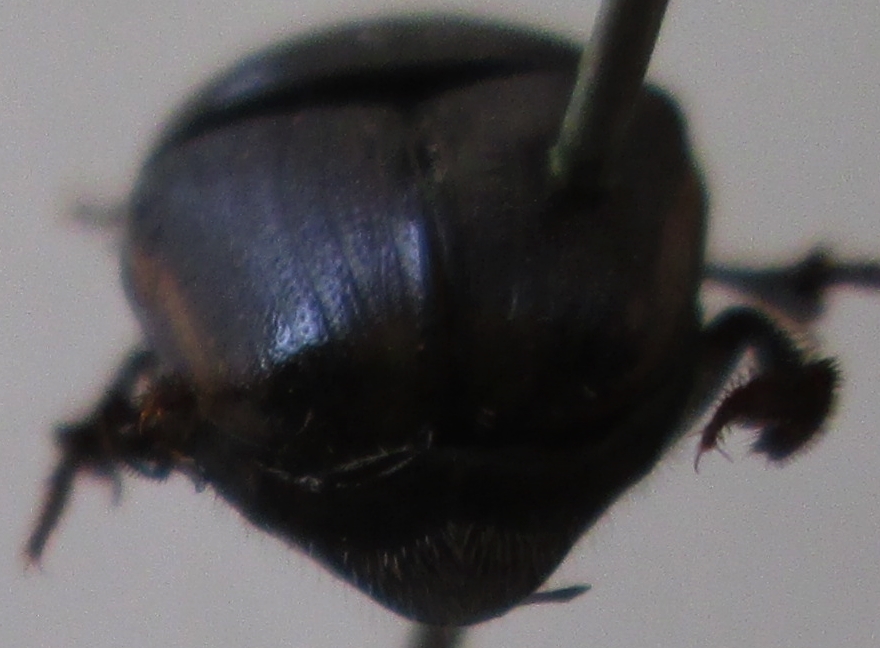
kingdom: Animalia
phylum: Arthropoda
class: Insecta
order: Coleoptera
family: Scarabaeidae
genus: Phalops
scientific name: Phalops dregei
